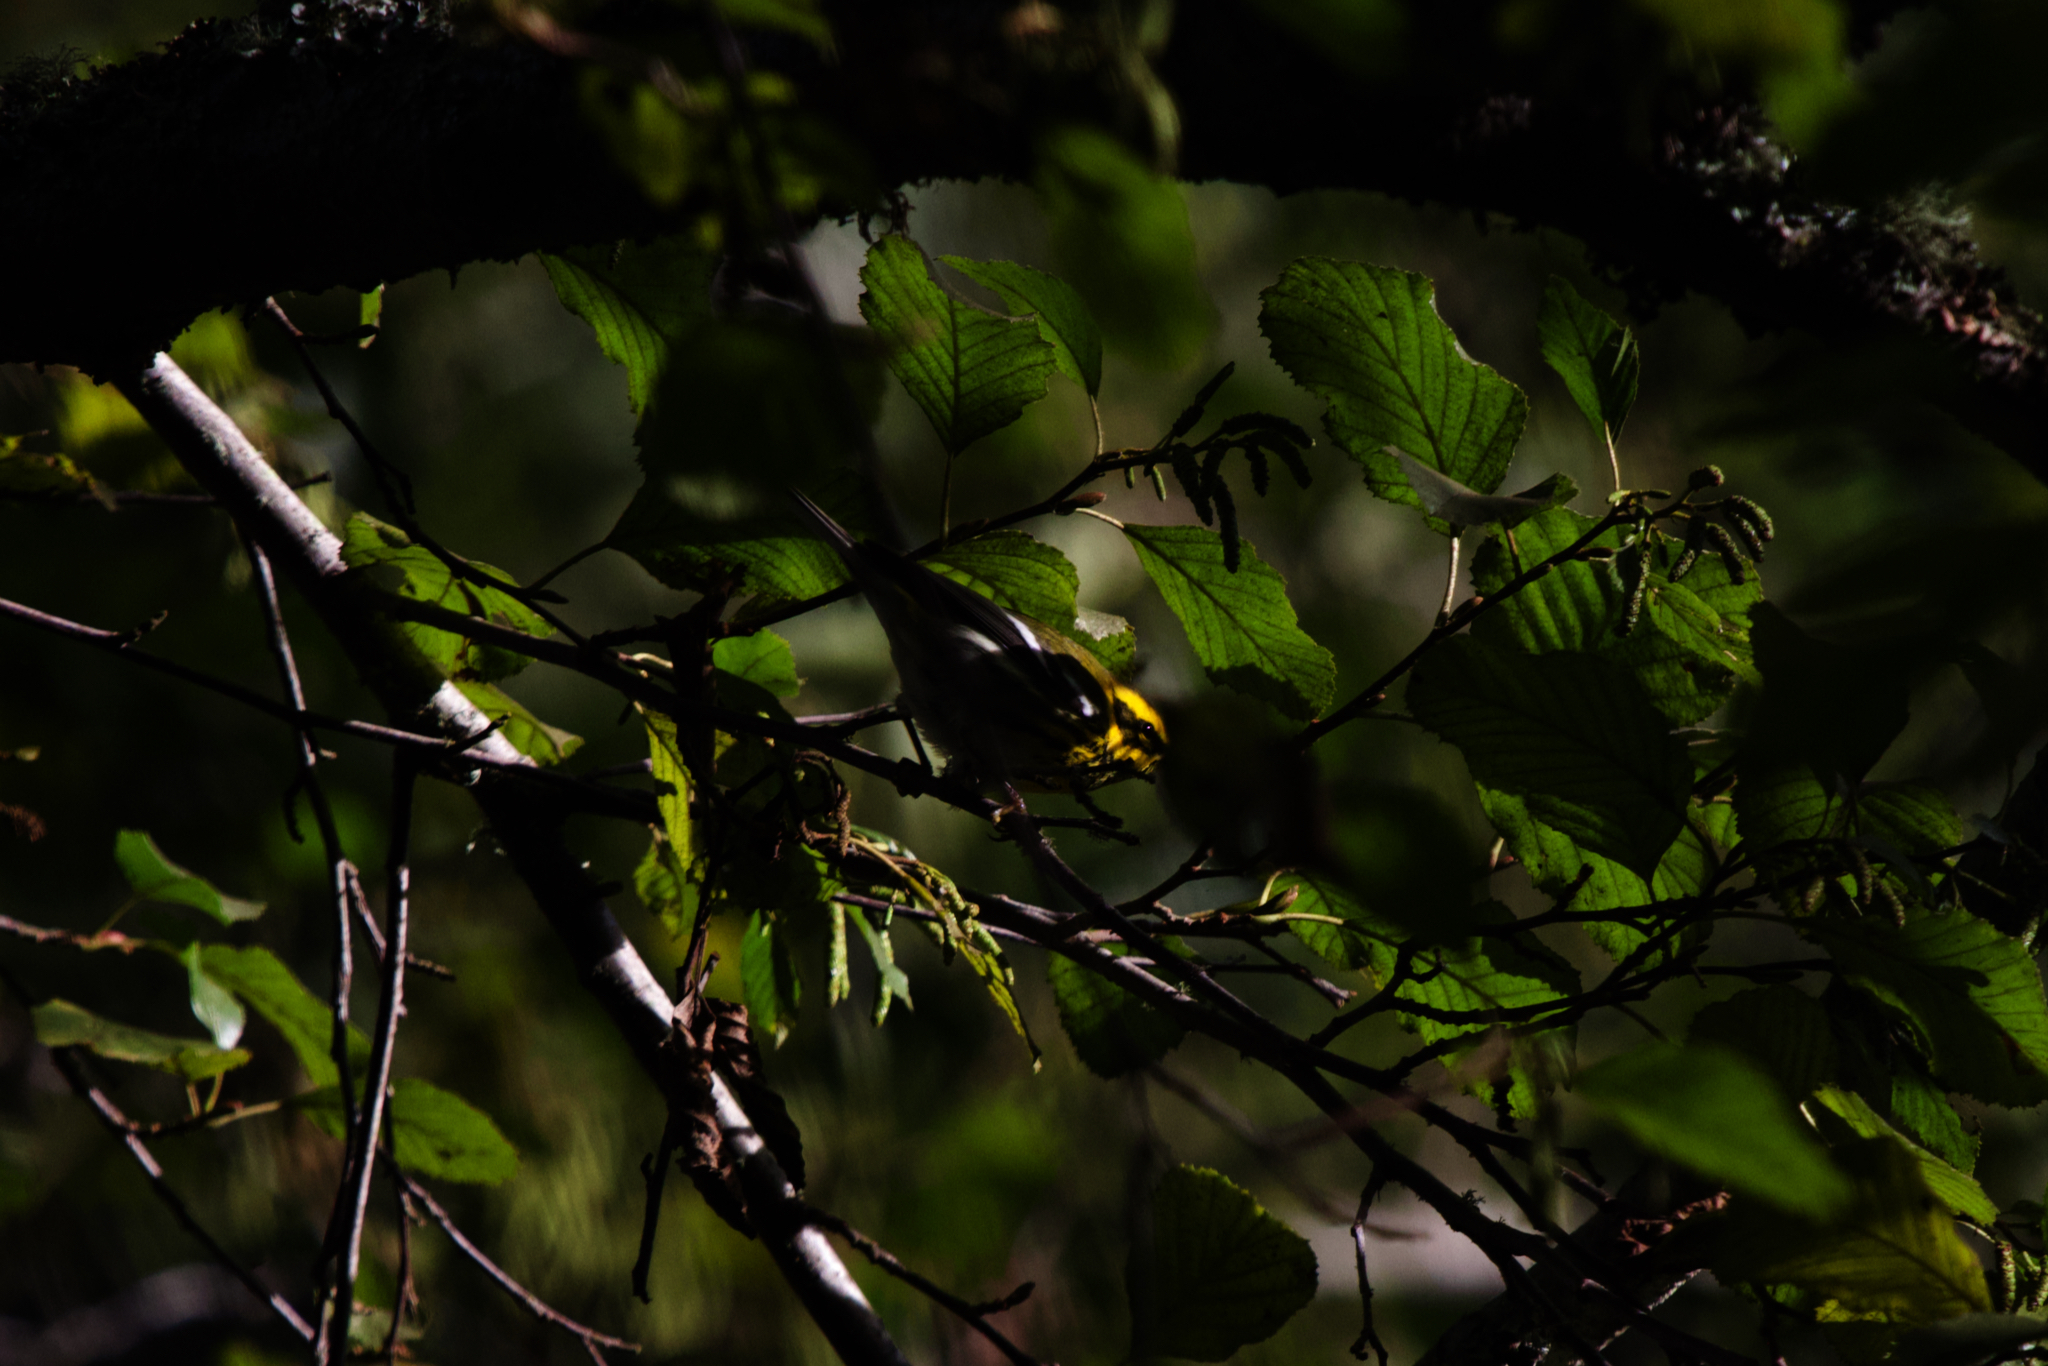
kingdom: Animalia
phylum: Chordata
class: Aves
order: Passeriformes
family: Parulidae
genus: Setophaga
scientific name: Setophaga townsendi
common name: Townsend's warbler
